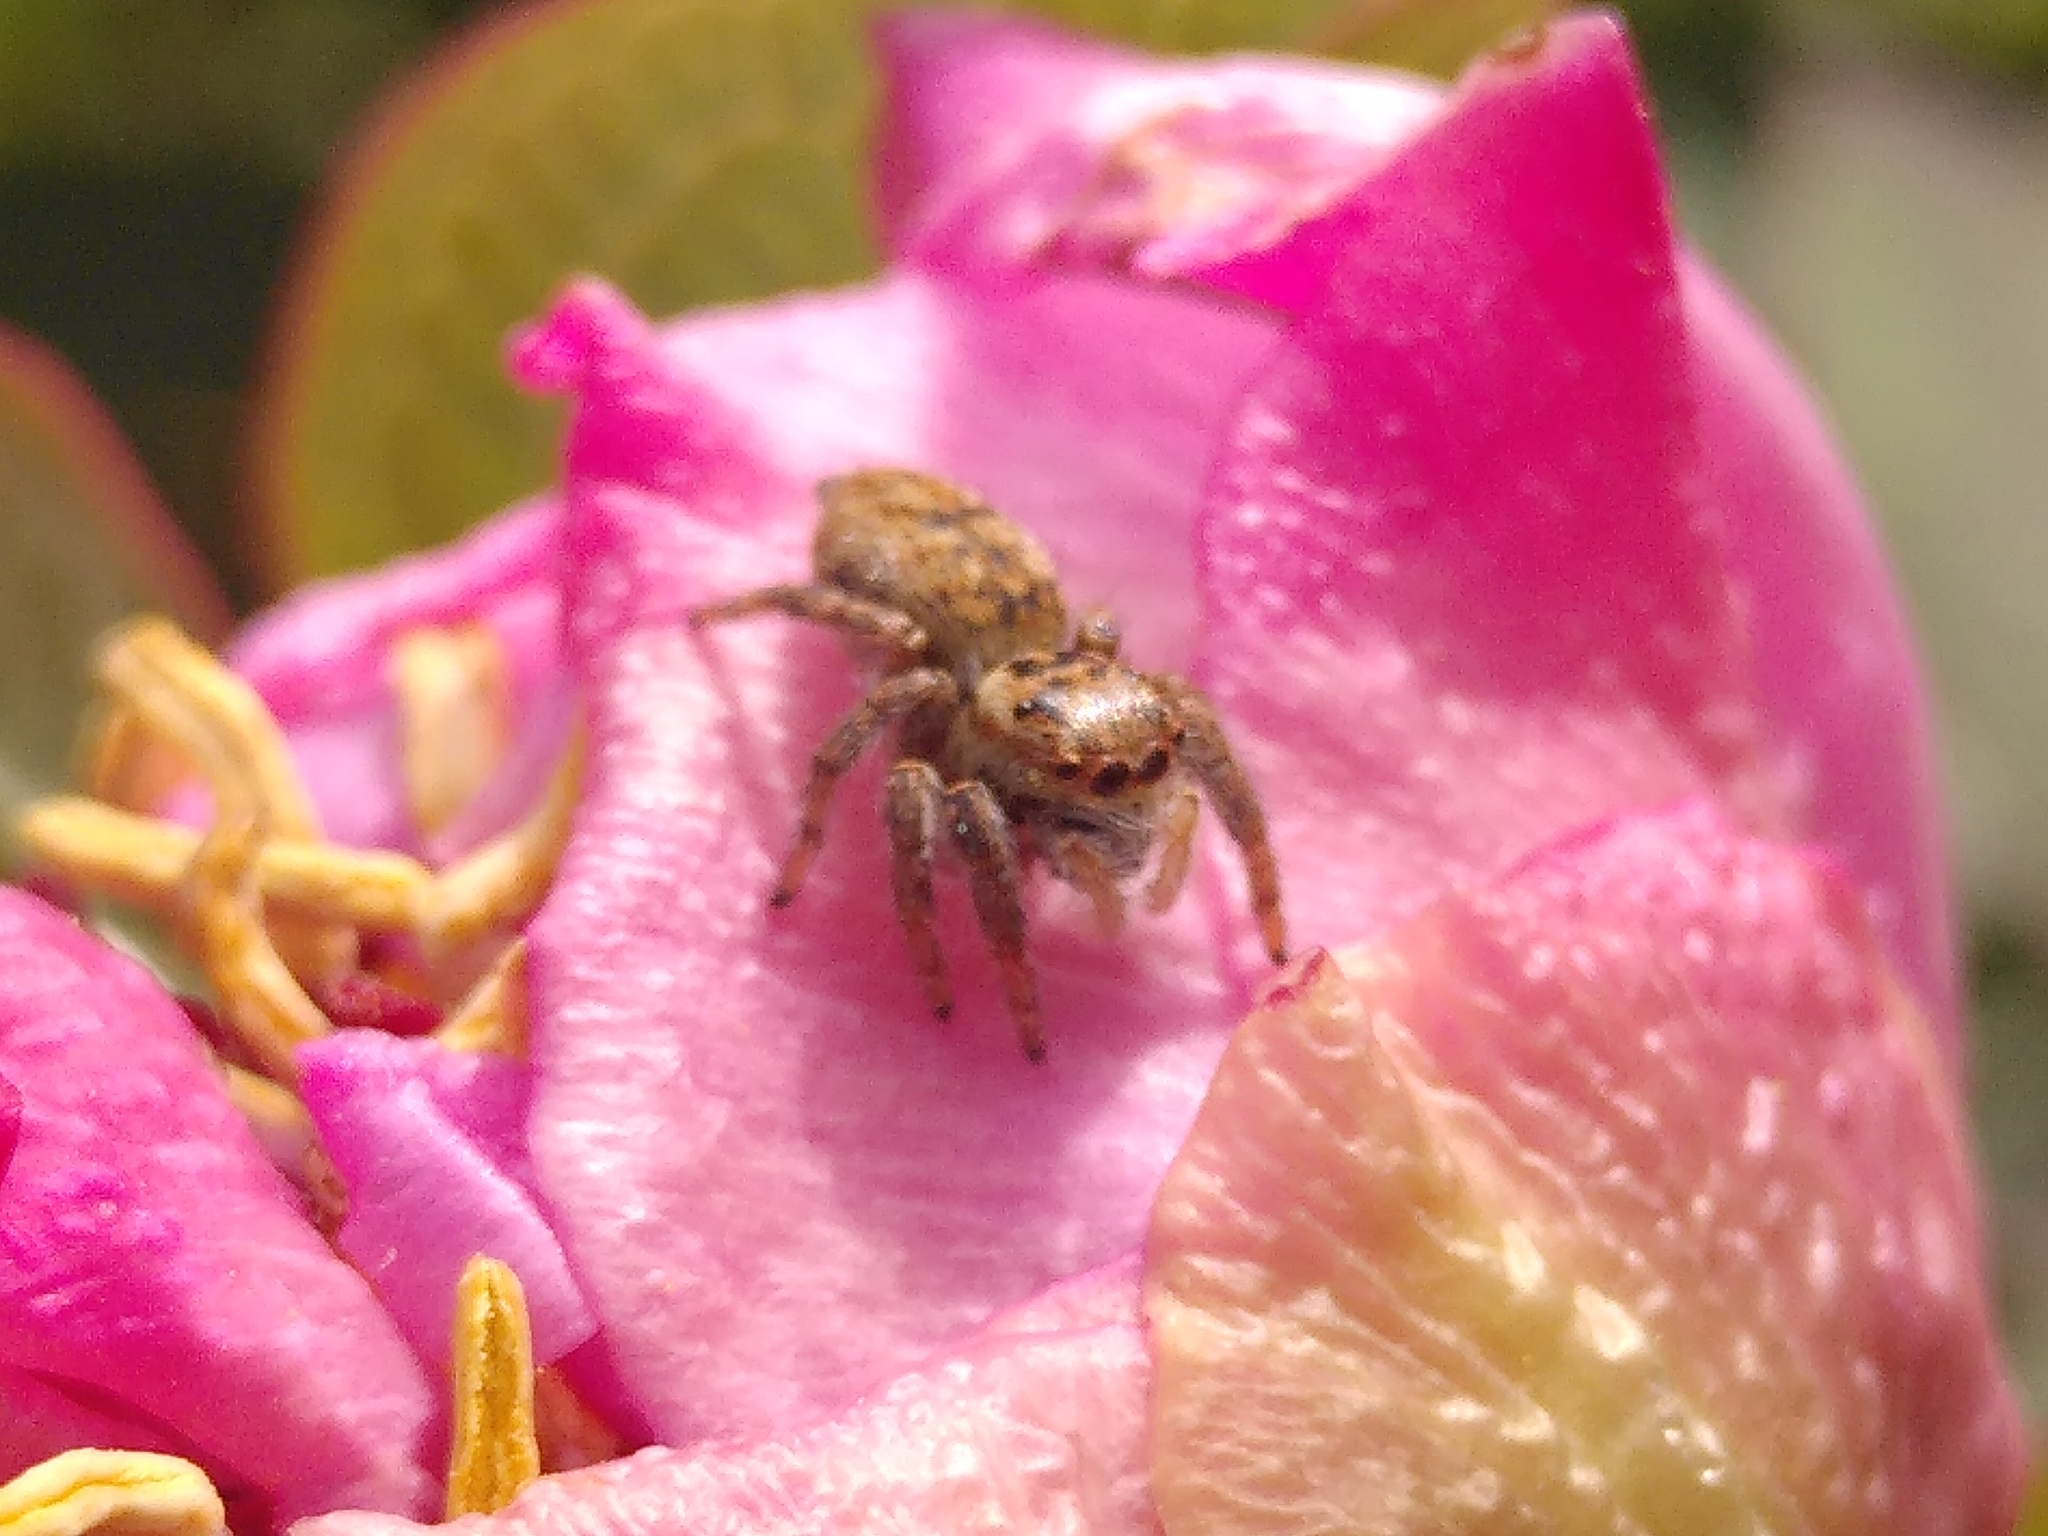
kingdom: Animalia
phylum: Arthropoda
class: Arachnida
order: Araneae
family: Salticidae
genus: Carrhotus
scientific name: Carrhotus xanthogramma
